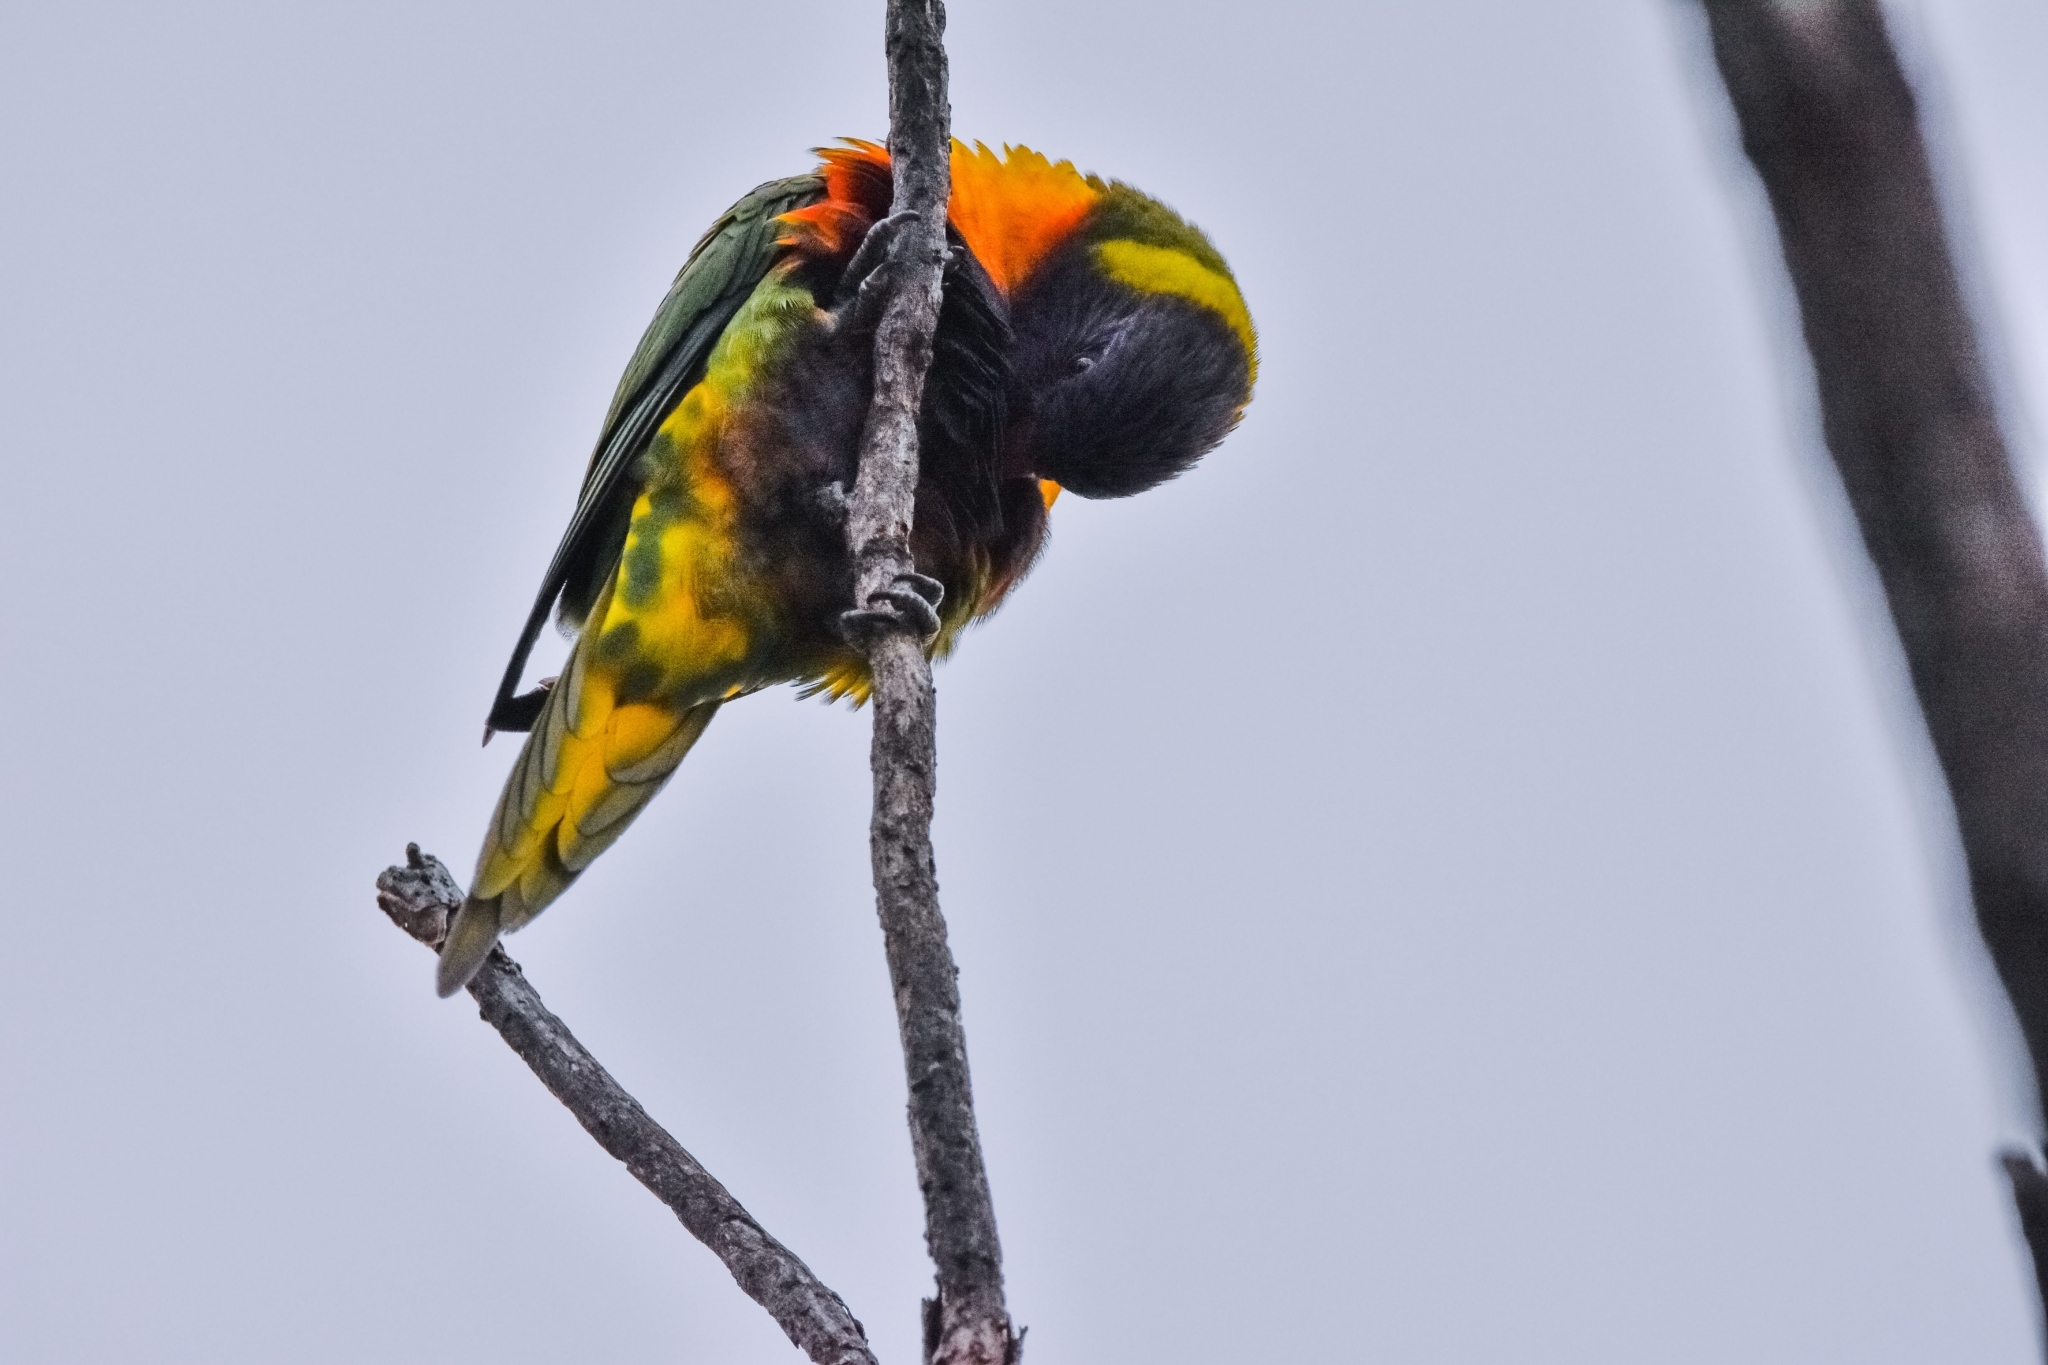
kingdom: Animalia
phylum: Chordata
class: Aves
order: Psittaciformes
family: Psittacidae
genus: Trichoglossus
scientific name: Trichoglossus haematodus
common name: Coconut lorikeet
